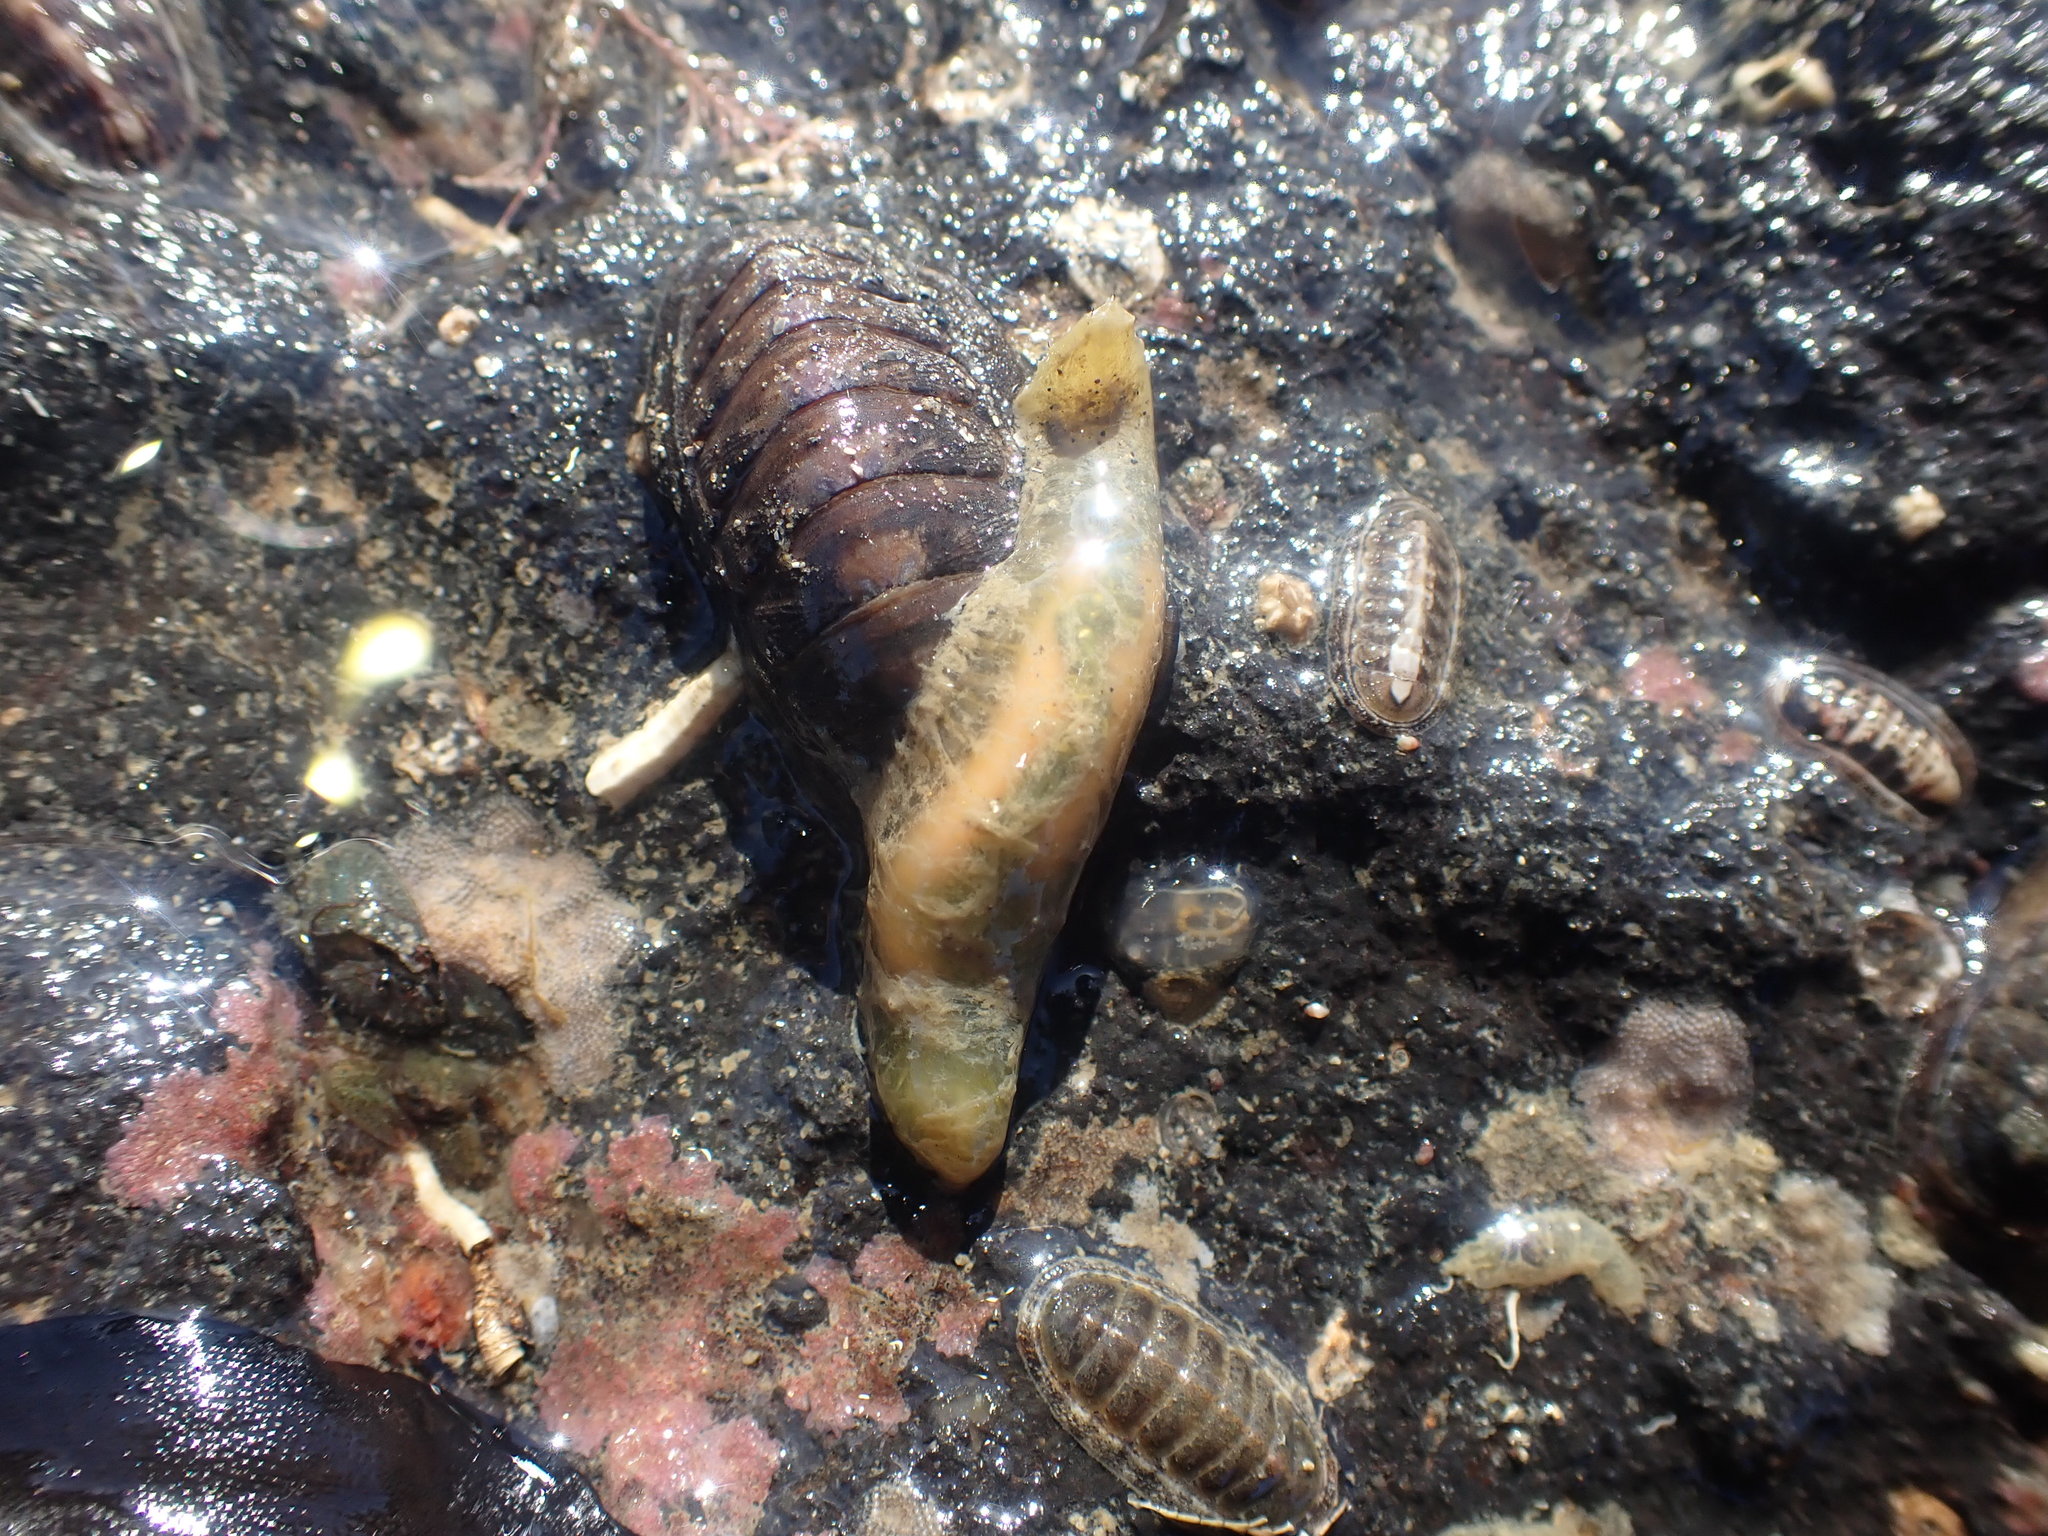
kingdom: Animalia
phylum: Annelida
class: Polychaeta
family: Flabelligeridae
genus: Flabelligera
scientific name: Flabelligera bicolor
